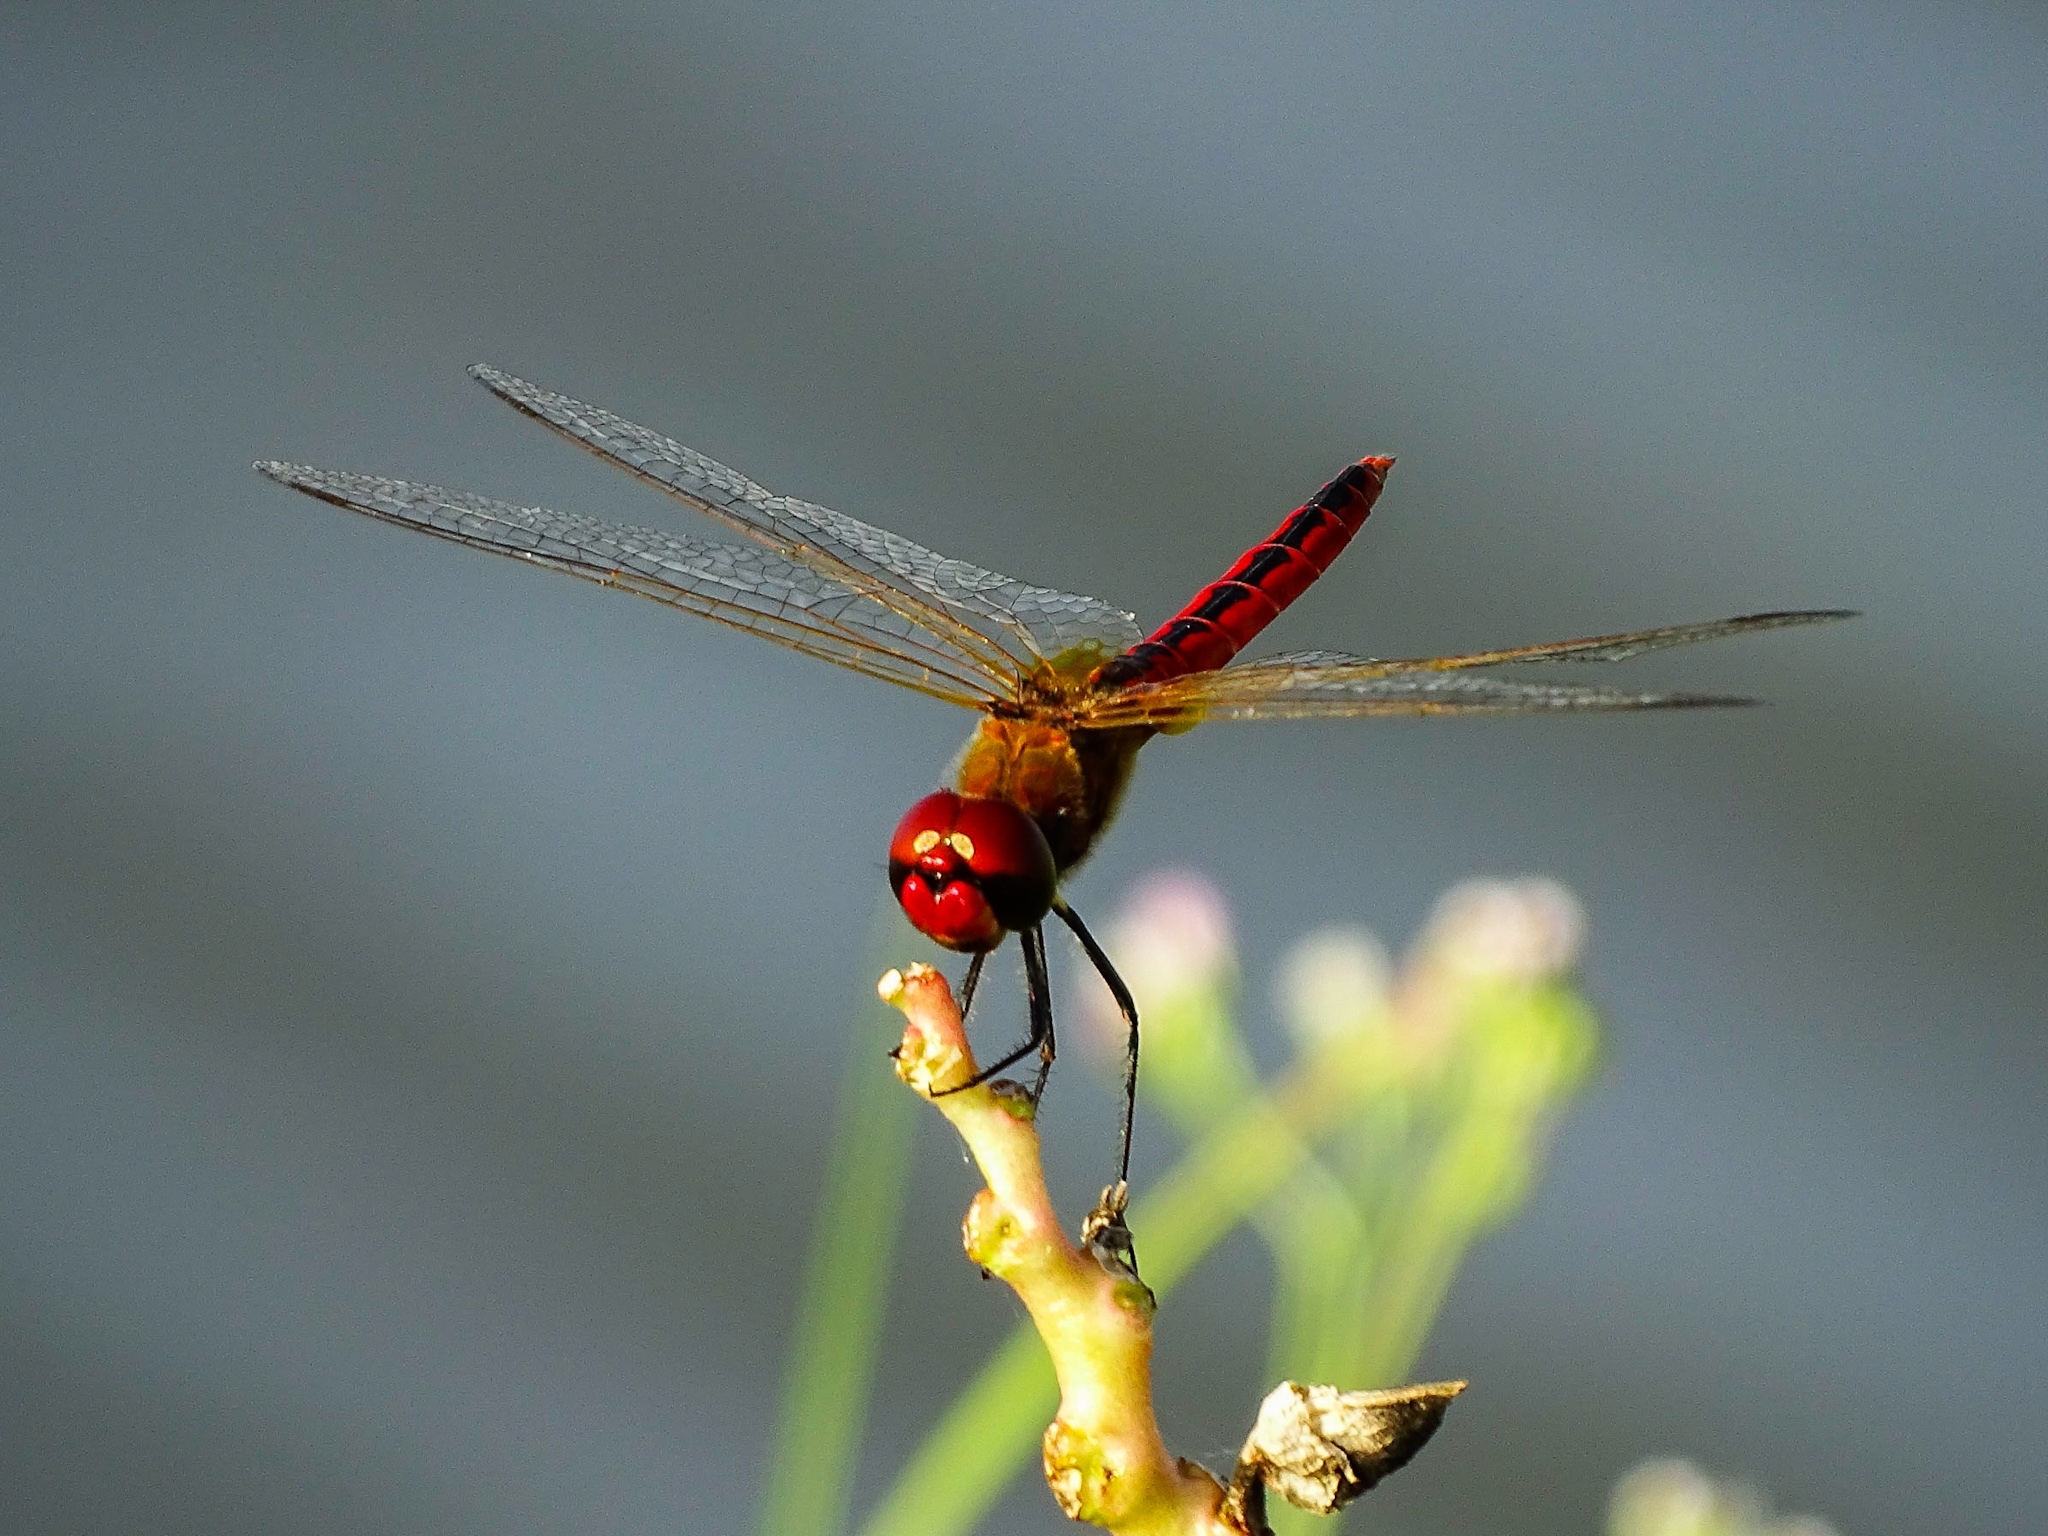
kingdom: Animalia
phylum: Arthropoda
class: Insecta
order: Odonata
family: Libellulidae
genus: Macrodiplax
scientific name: Macrodiplax cora
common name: Coastal glider
